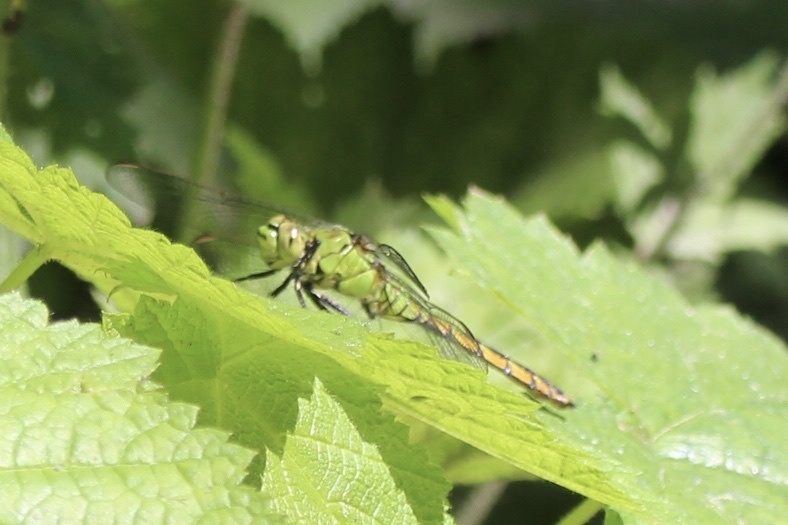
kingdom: Animalia
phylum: Arthropoda
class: Insecta
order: Odonata
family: Libellulidae
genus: Erythemis
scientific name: Erythemis collocata
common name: Western pondhawk
